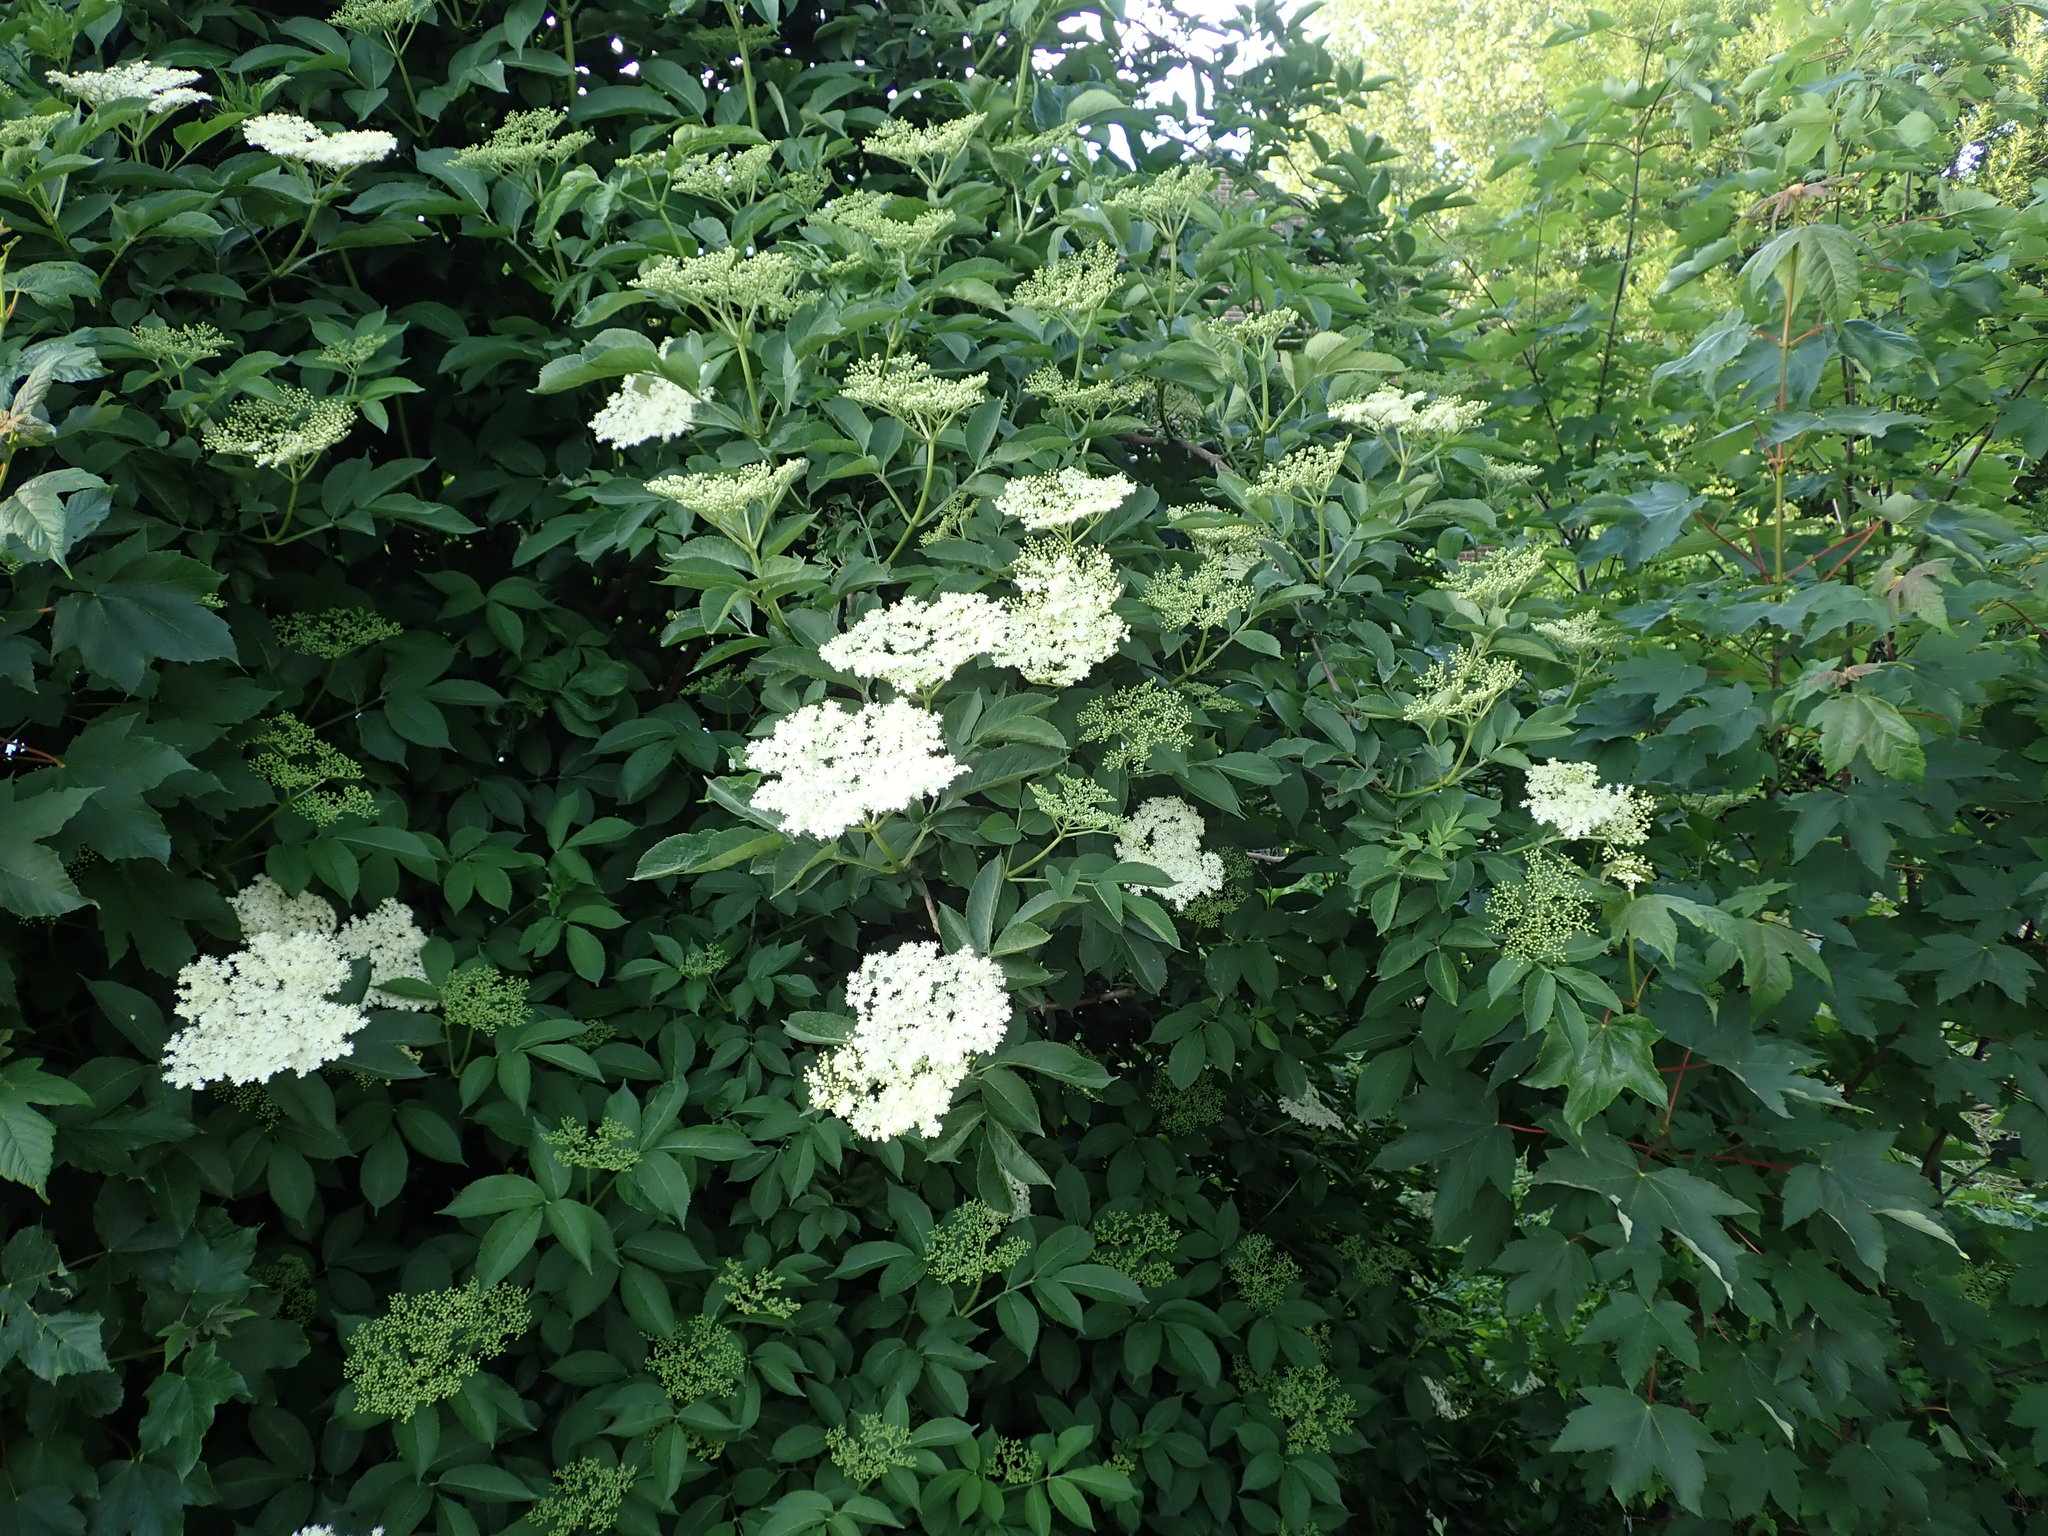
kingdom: Plantae
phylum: Tracheophyta
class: Magnoliopsida
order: Dipsacales
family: Viburnaceae
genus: Sambucus
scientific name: Sambucus nigra
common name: Elder
